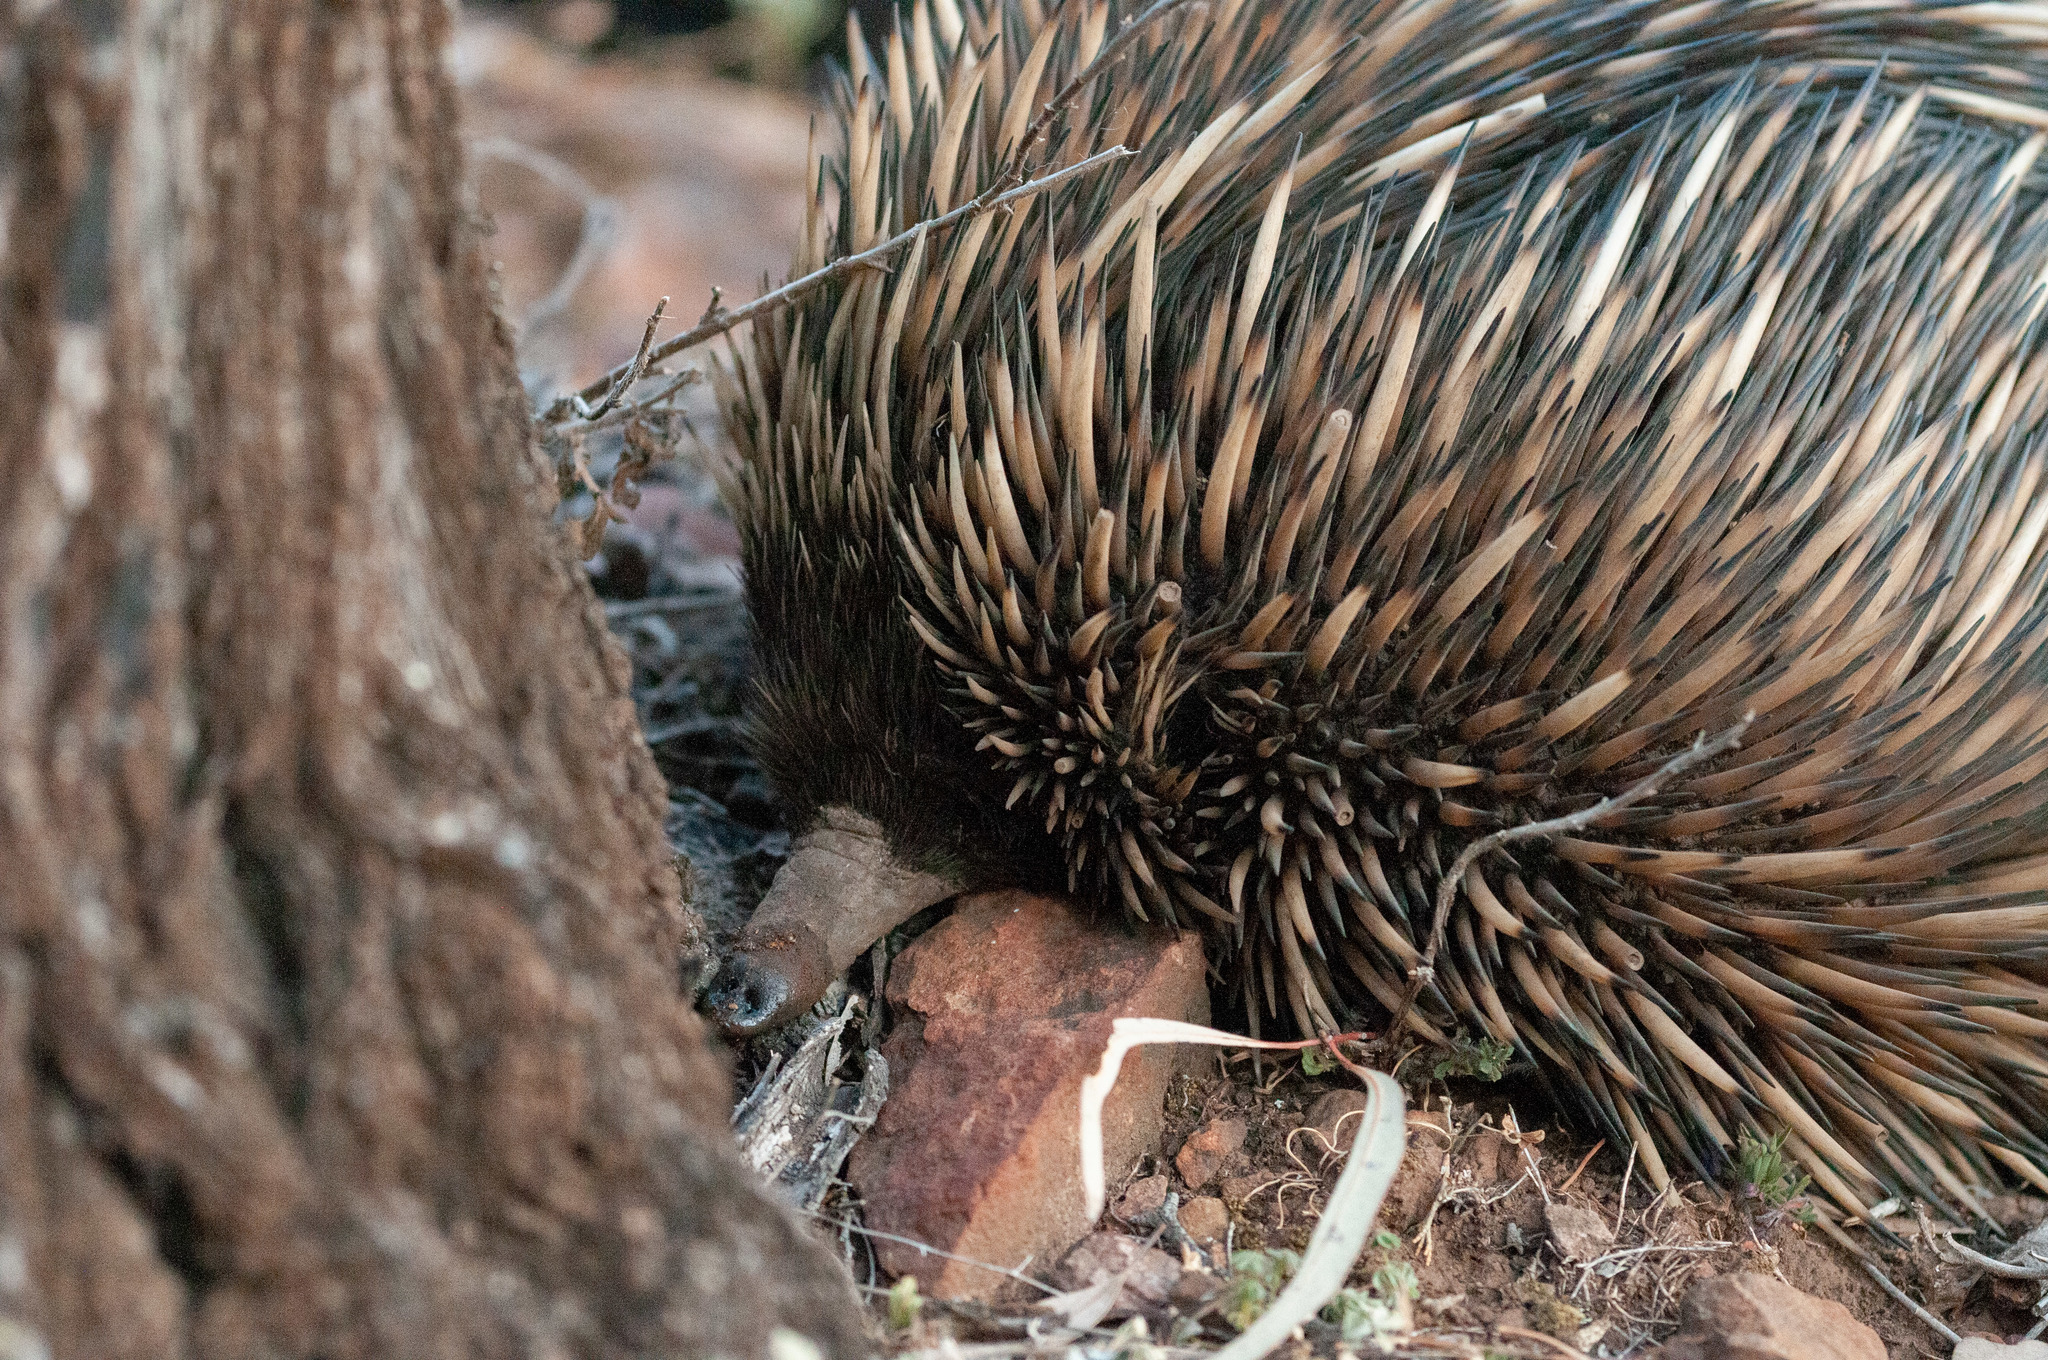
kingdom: Animalia
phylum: Chordata
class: Mammalia
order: Monotremata
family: Tachyglossidae
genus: Tachyglossus
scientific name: Tachyglossus aculeatus
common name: Short-beaked echidna
